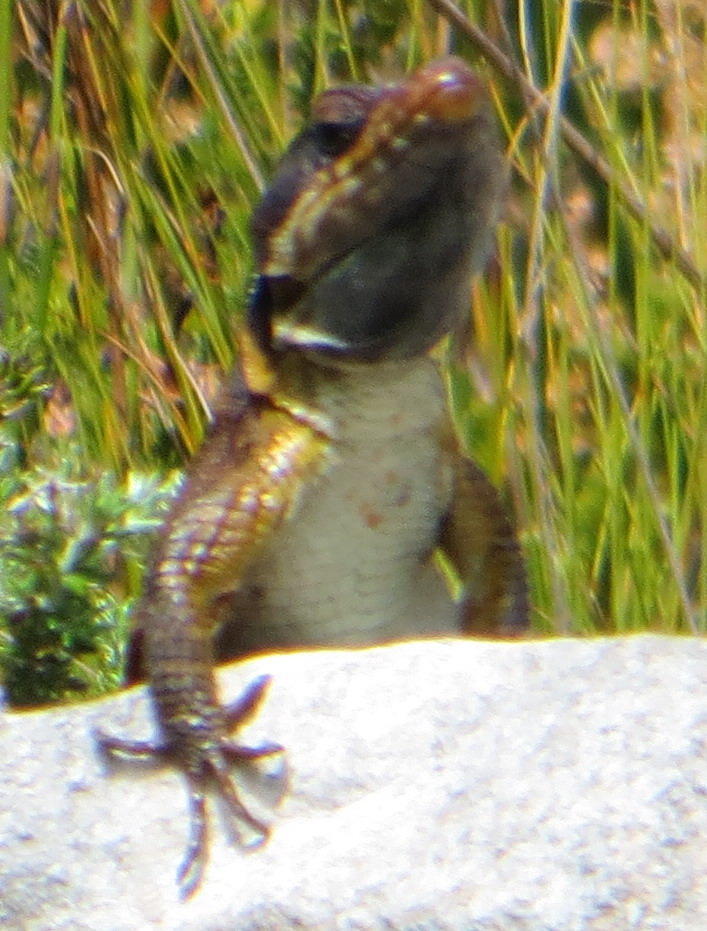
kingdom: Animalia
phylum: Chordata
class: Squamata
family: Cordylidae
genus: Pseudocordylus
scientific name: Pseudocordylus microlepidotus
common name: Cape crag lizard
